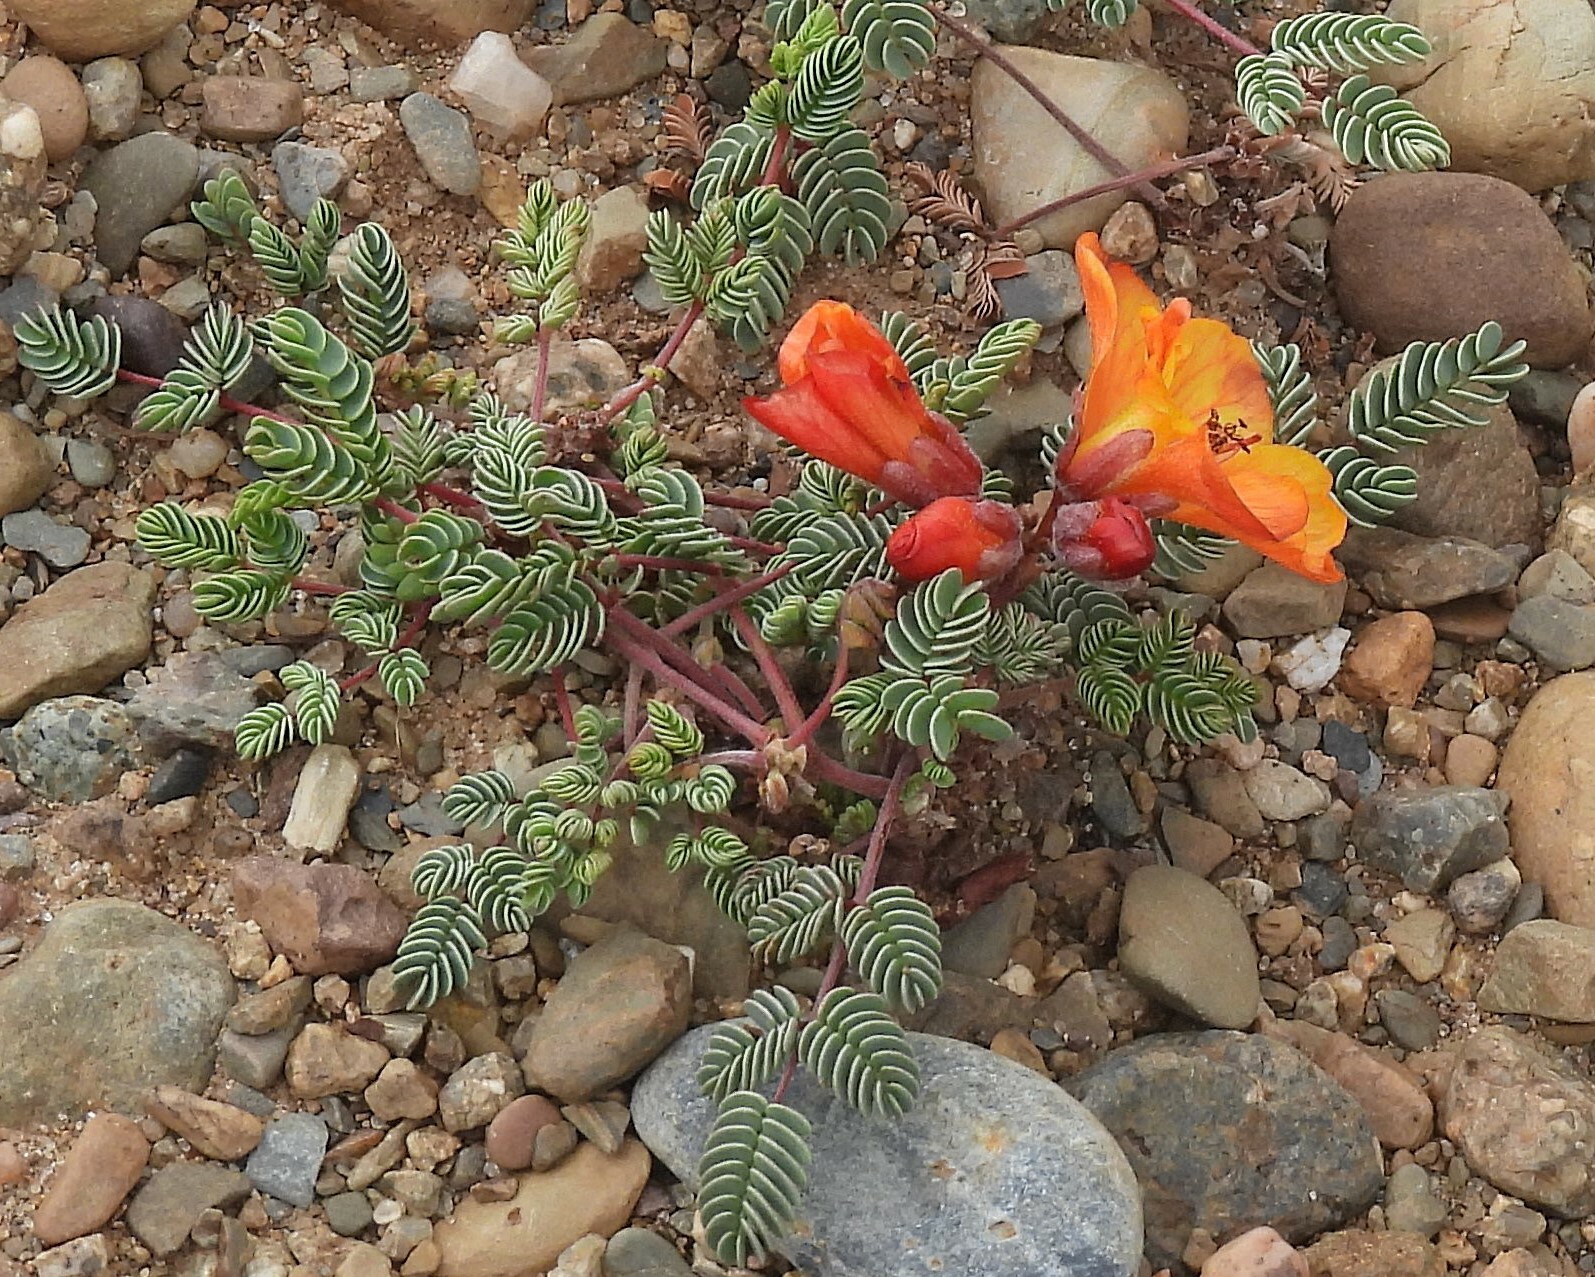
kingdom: Plantae
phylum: Tracheophyta
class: Magnoliopsida
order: Fabales
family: Fabaceae
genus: Hoffmannseggia
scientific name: Hoffmannseggia minor
